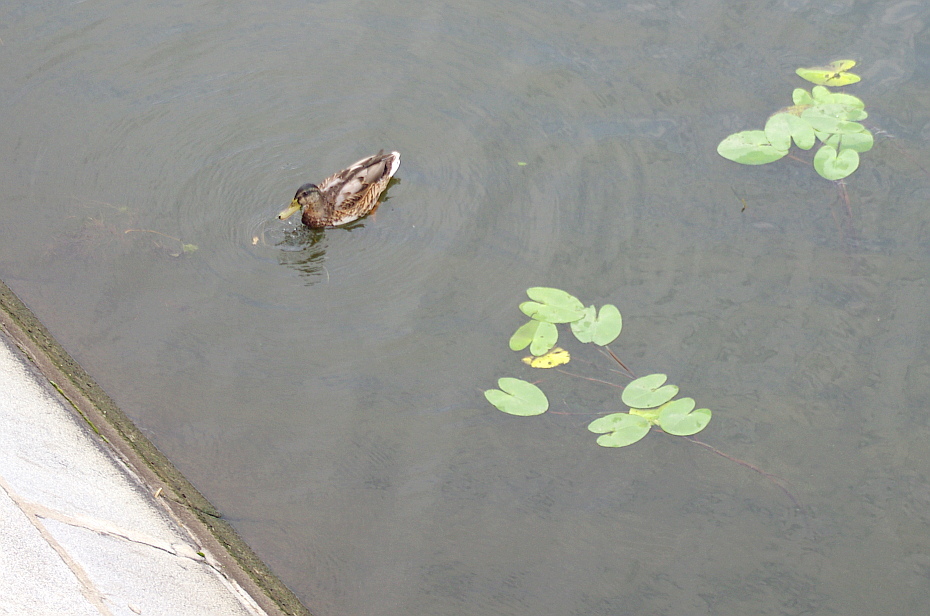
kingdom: Animalia
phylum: Chordata
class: Aves
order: Anseriformes
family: Anatidae
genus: Anas
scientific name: Anas platyrhynchos
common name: Mallard
